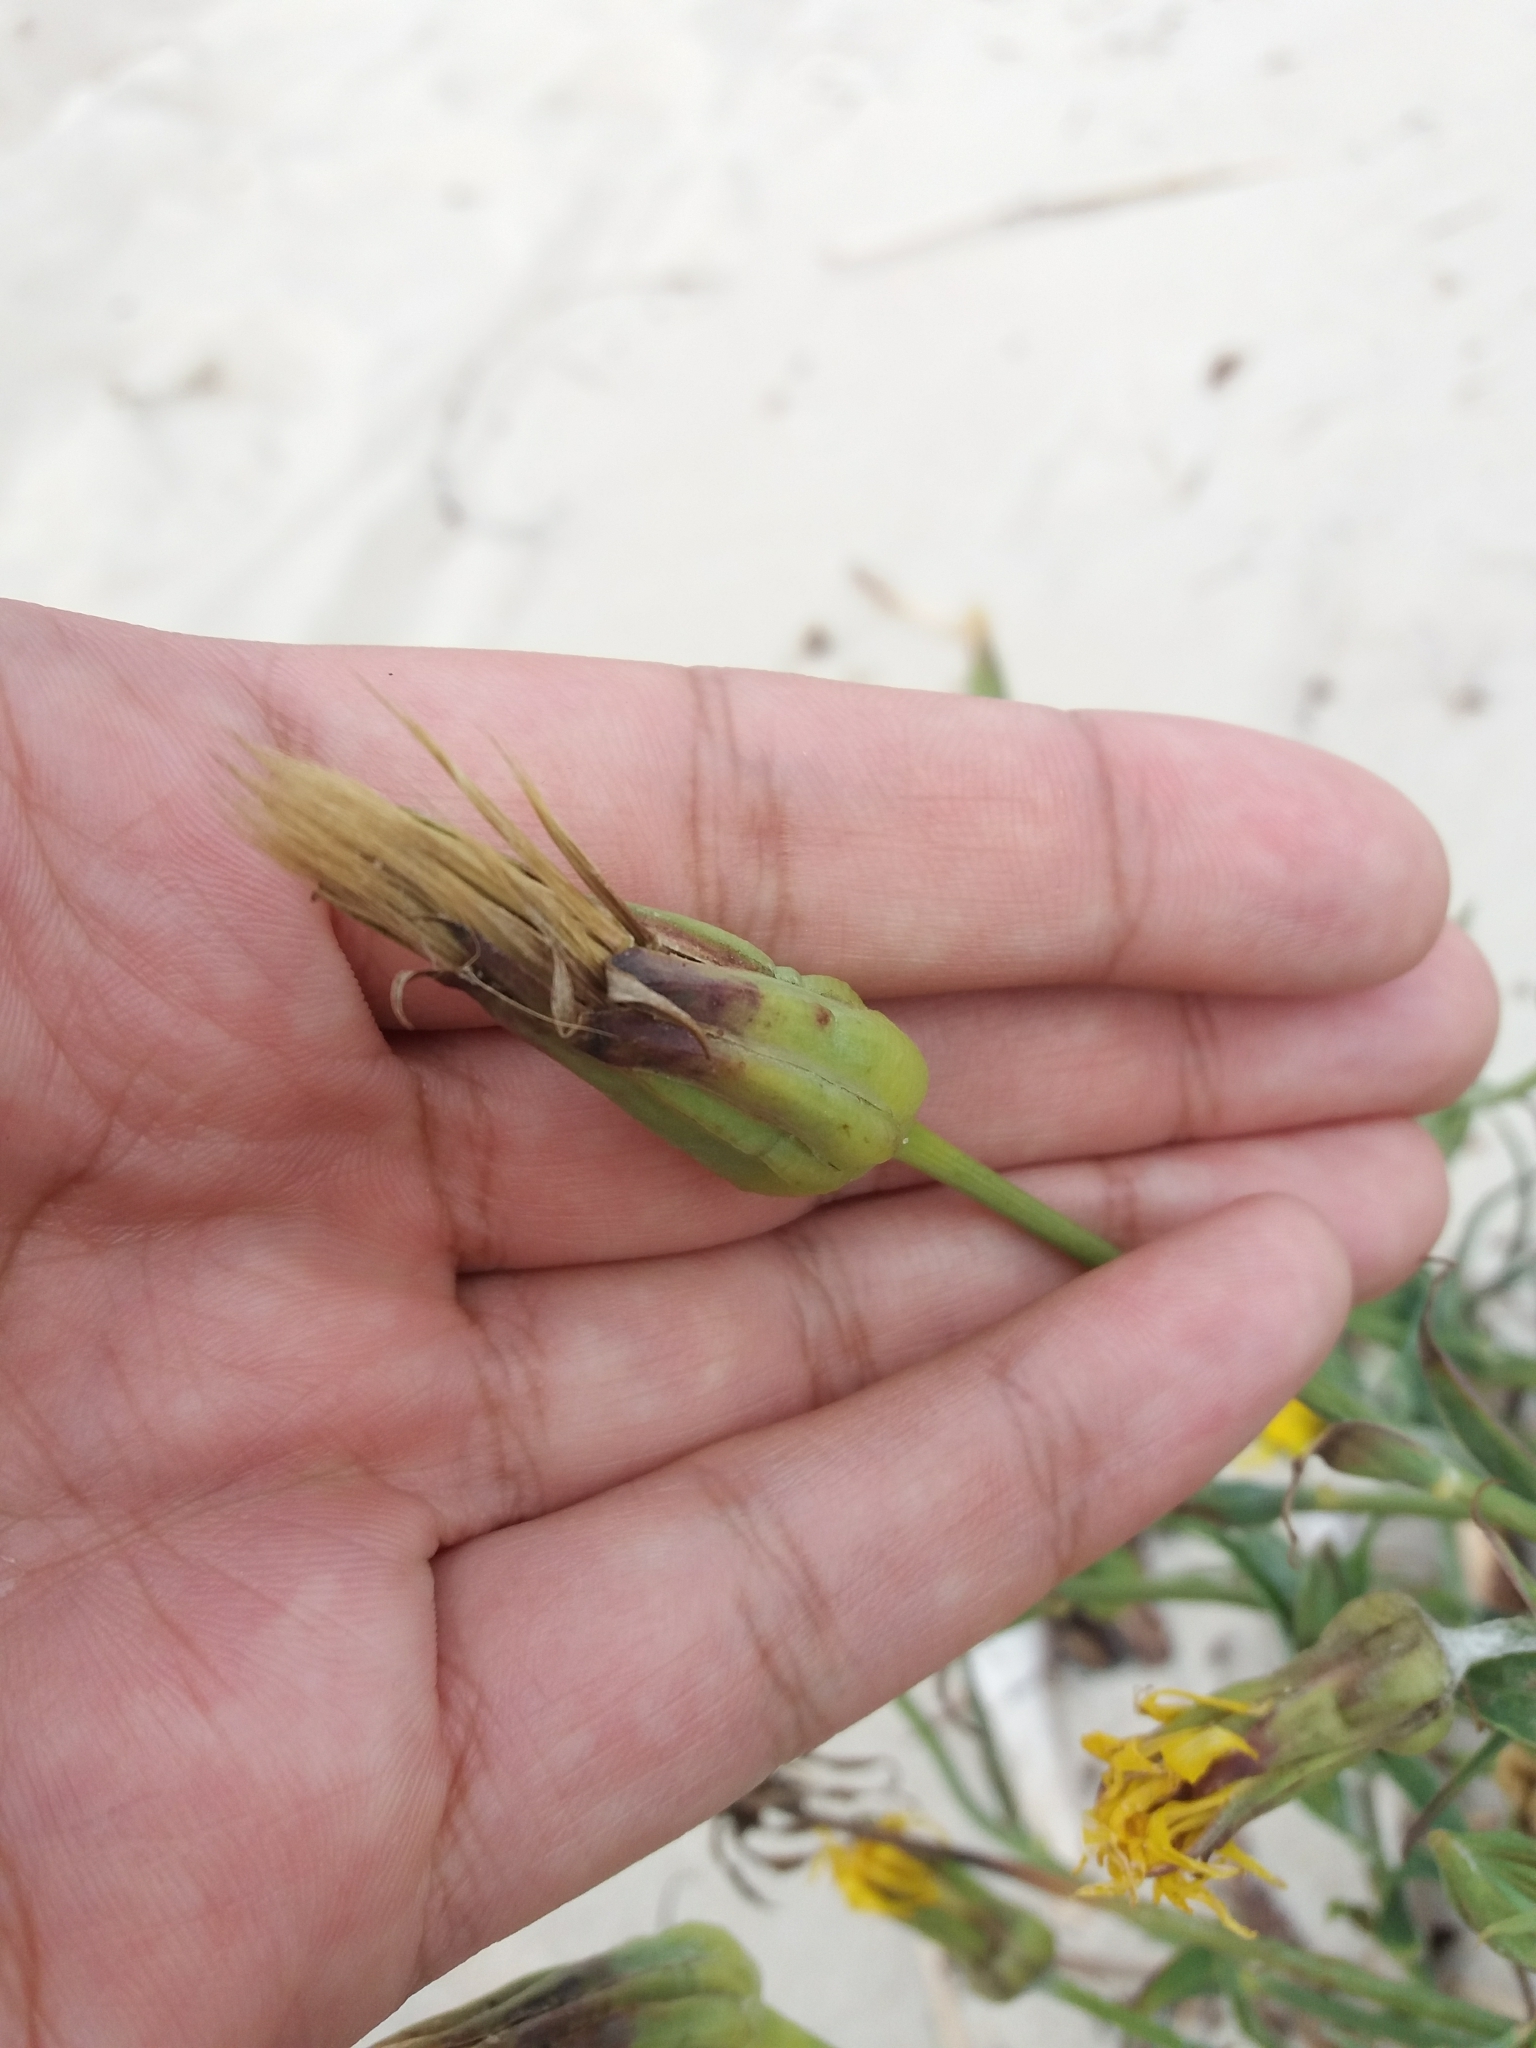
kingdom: Plantae
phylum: Tracheophyta
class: Magnoliopsida
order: Asterales
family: Asteraceae
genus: Tragopogon
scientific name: Tragopogon heterospermus
